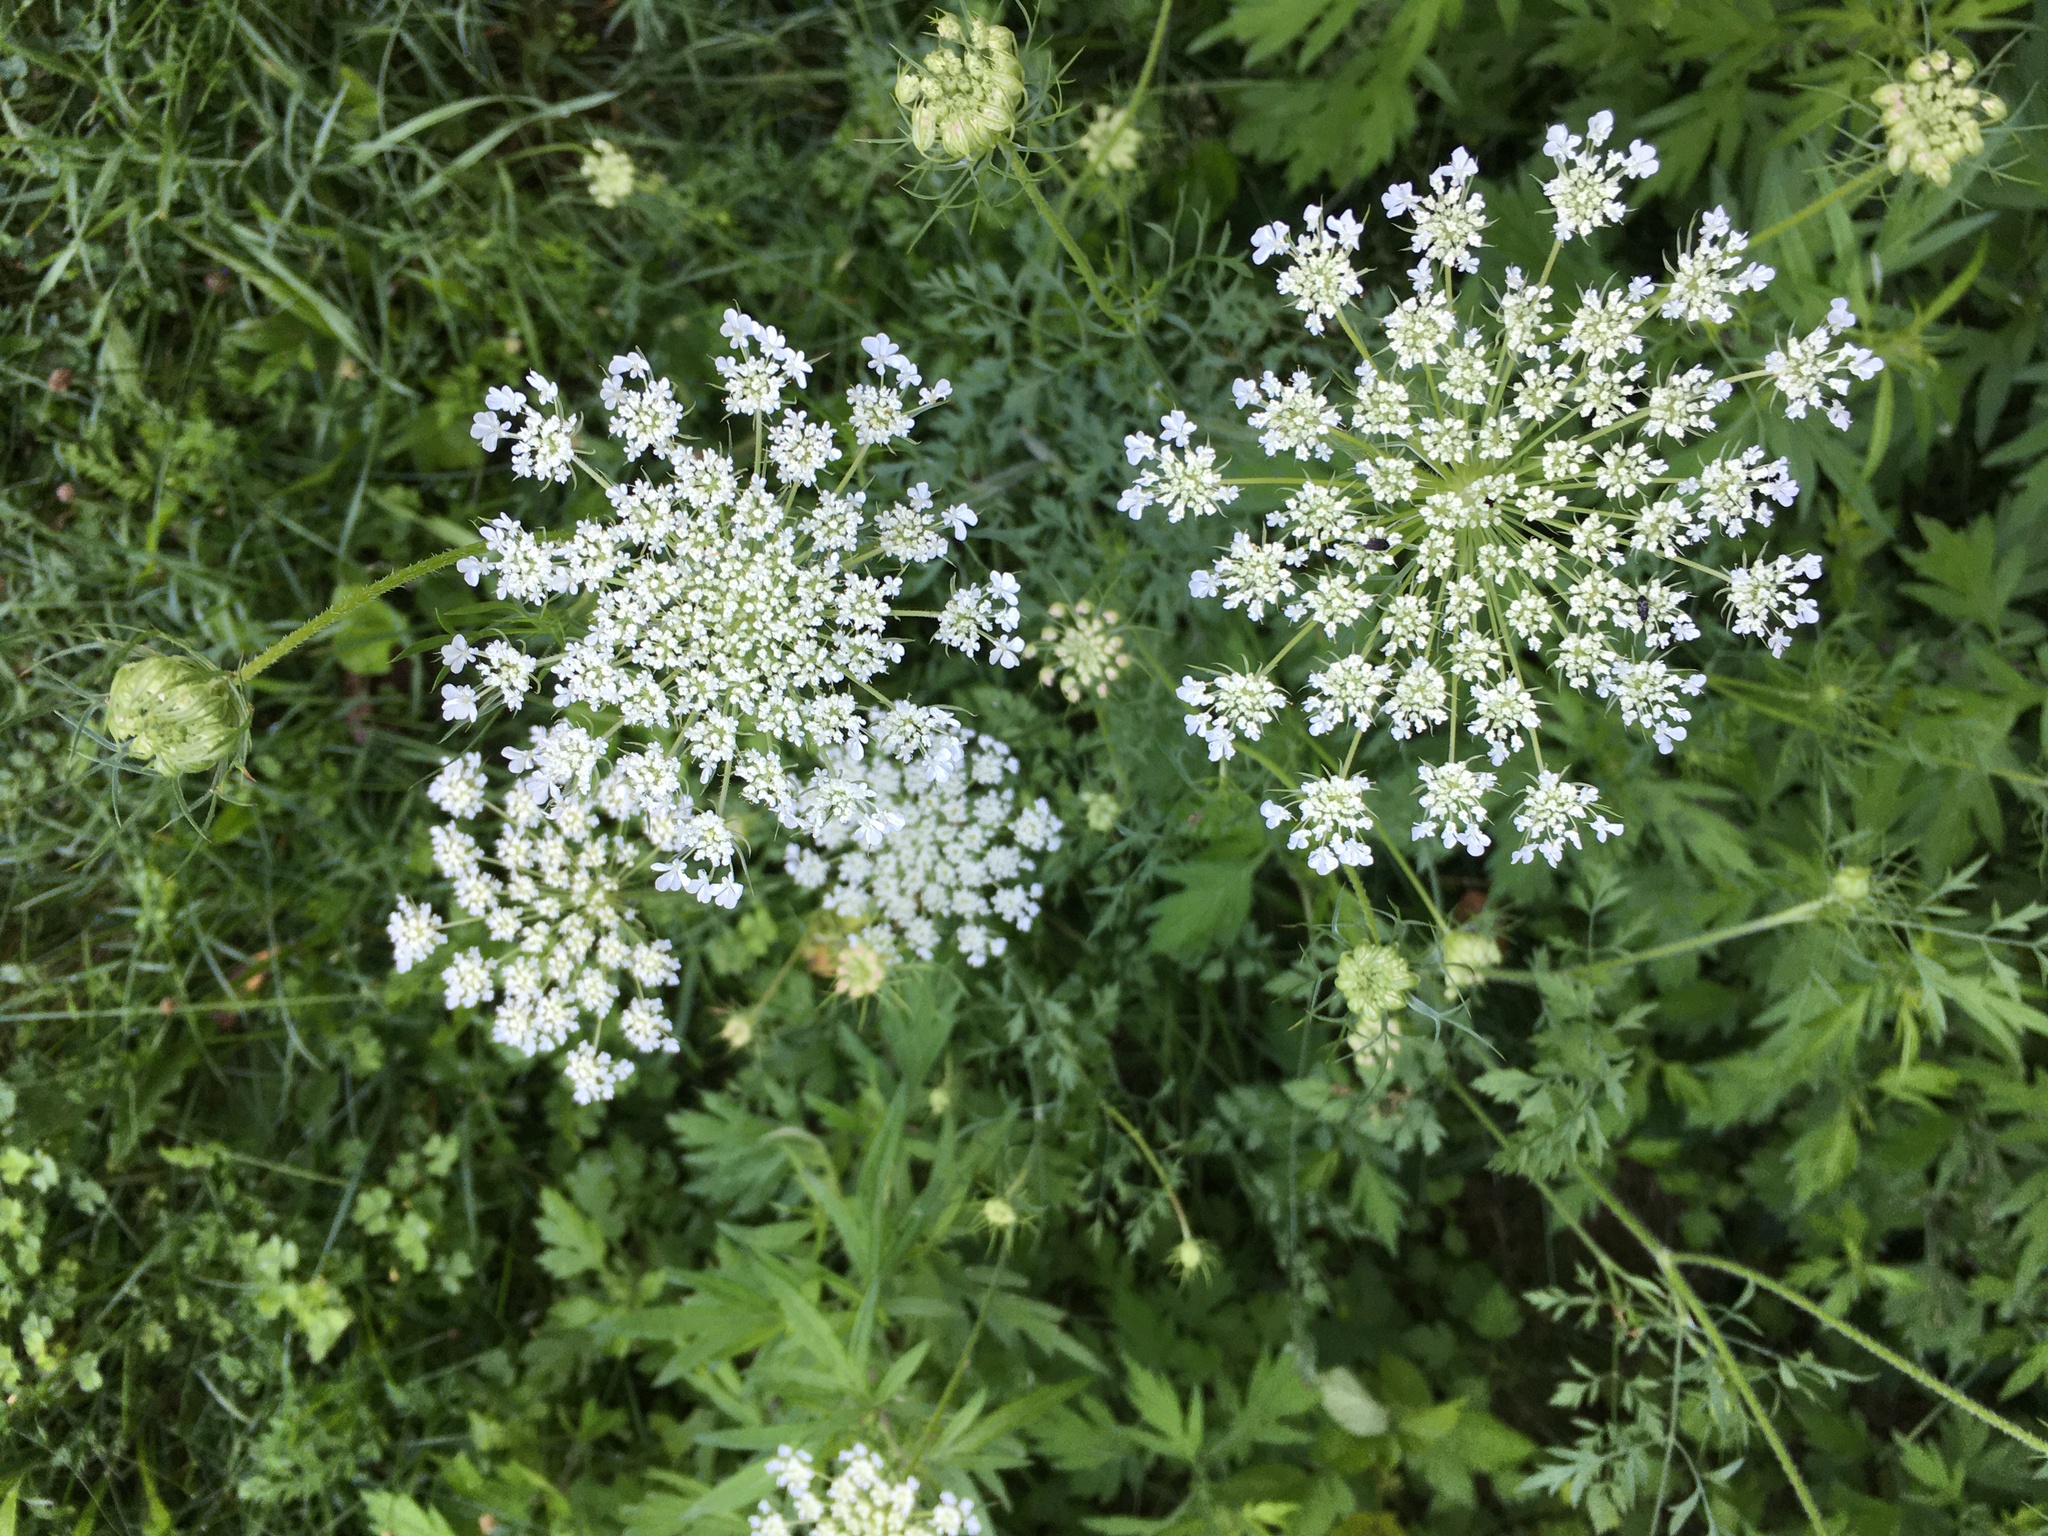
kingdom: Plantae
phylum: Tracheophyta
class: Magnoliopsida
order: Apiales
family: Apiaceae
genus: Daucus
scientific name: Daucus carota
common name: Wild carrot
